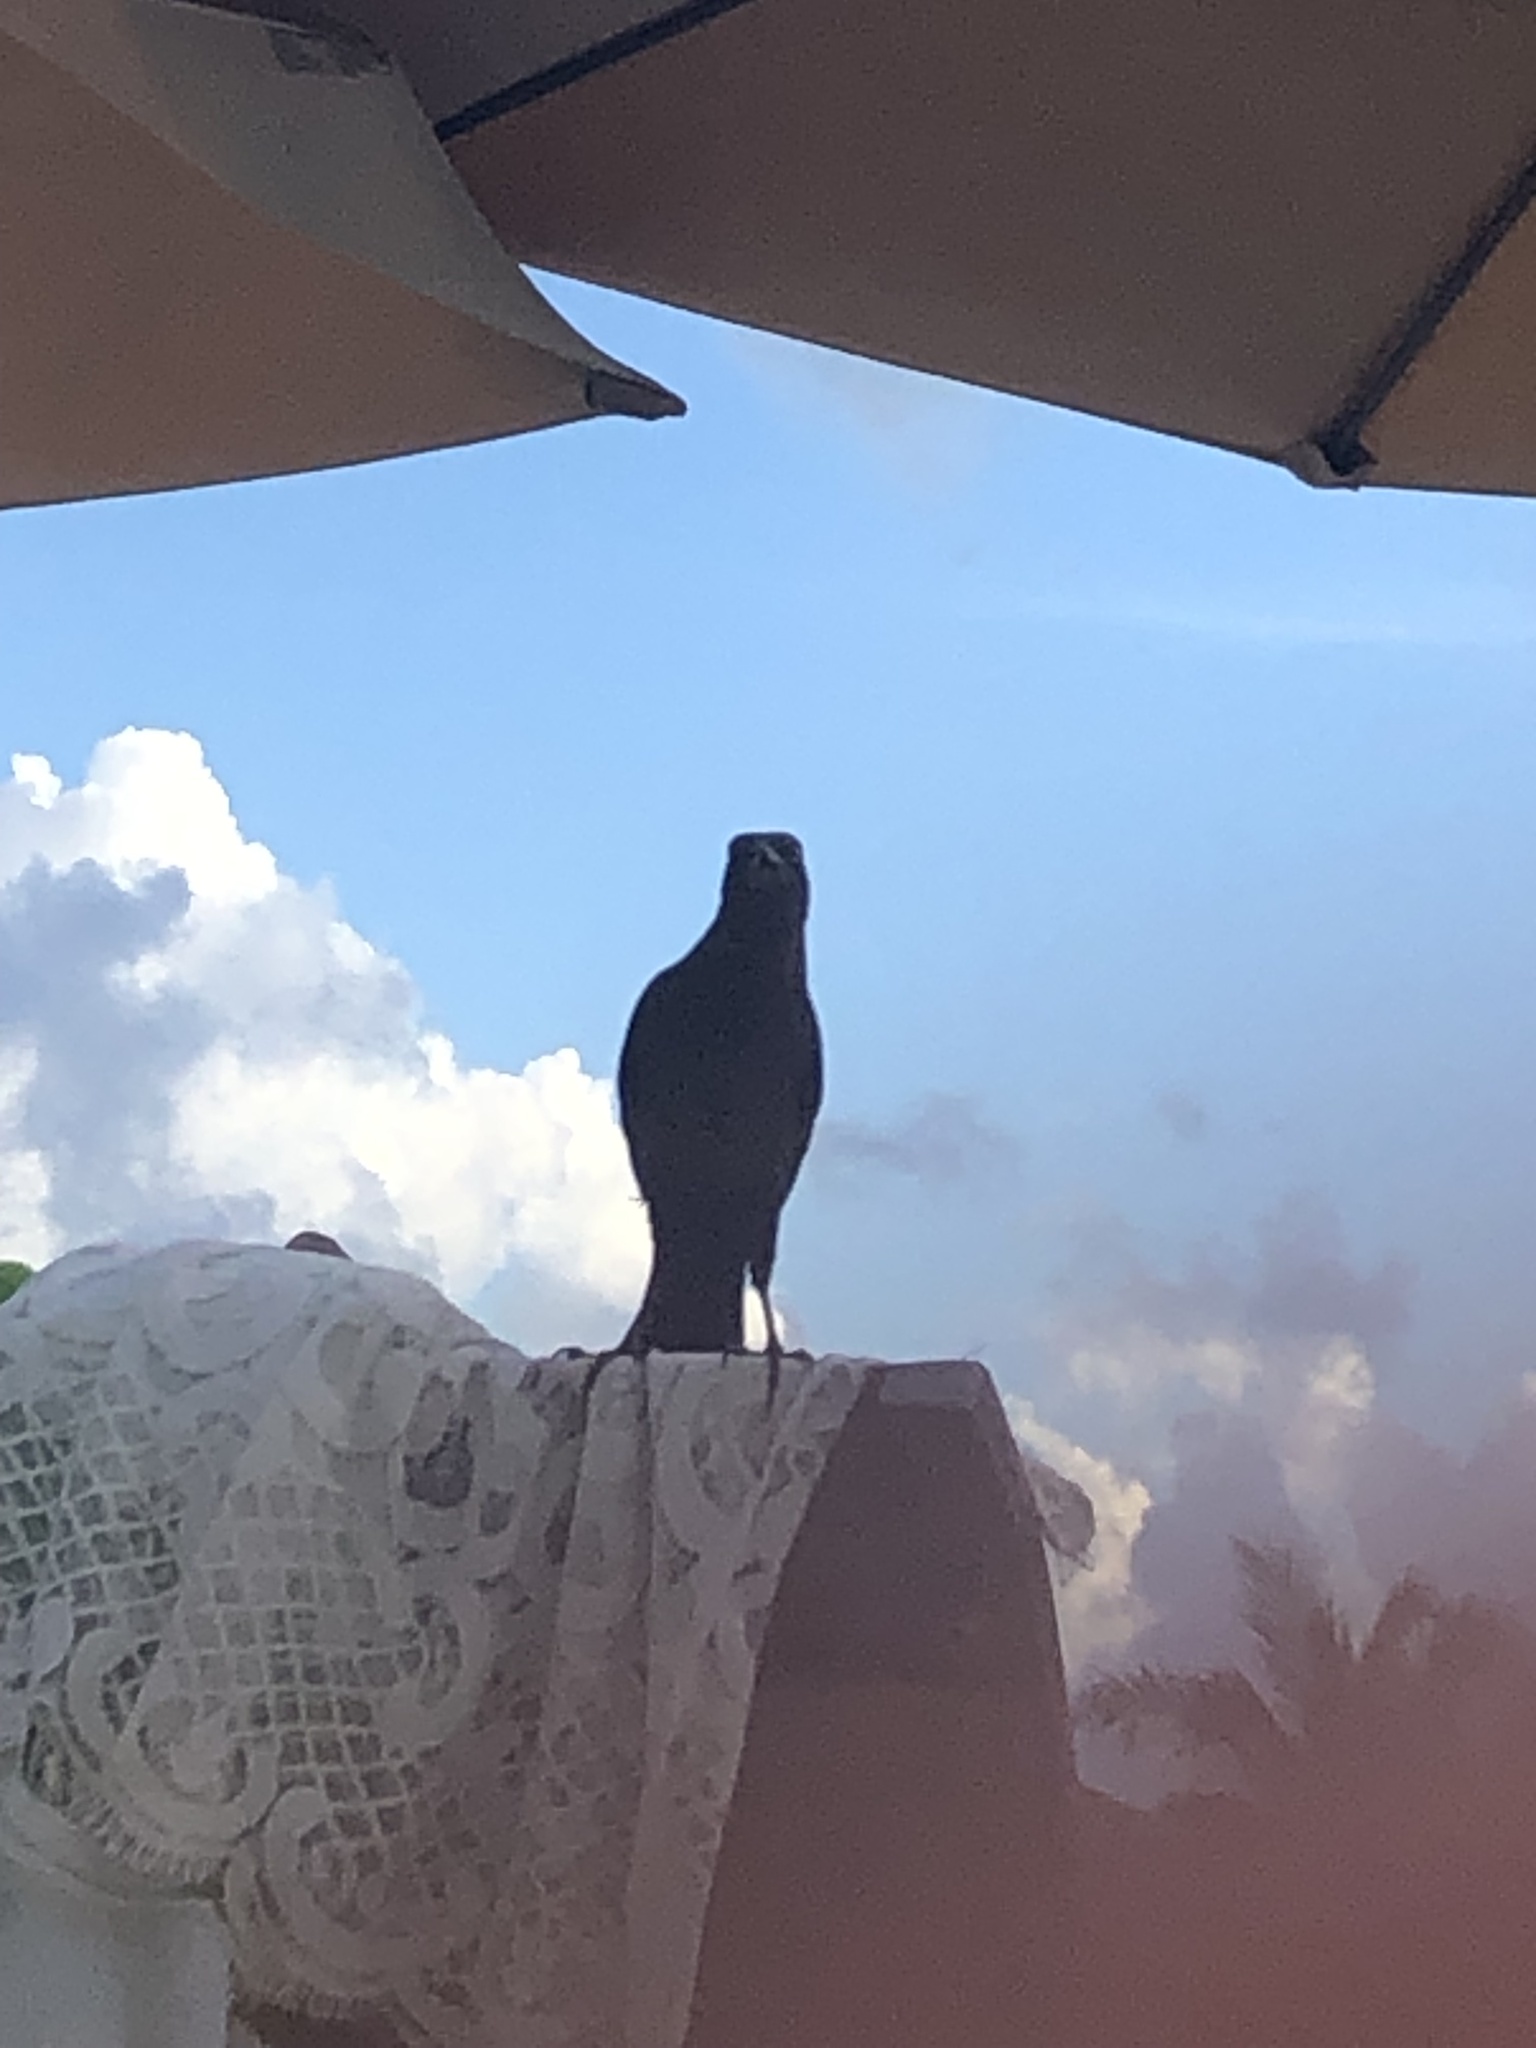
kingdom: Animalia
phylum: Chordata
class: Aves
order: Passeriformes
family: Icteridae
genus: Quiscalus
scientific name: Quiscalus mexicanus
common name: Great-tailed grackle
